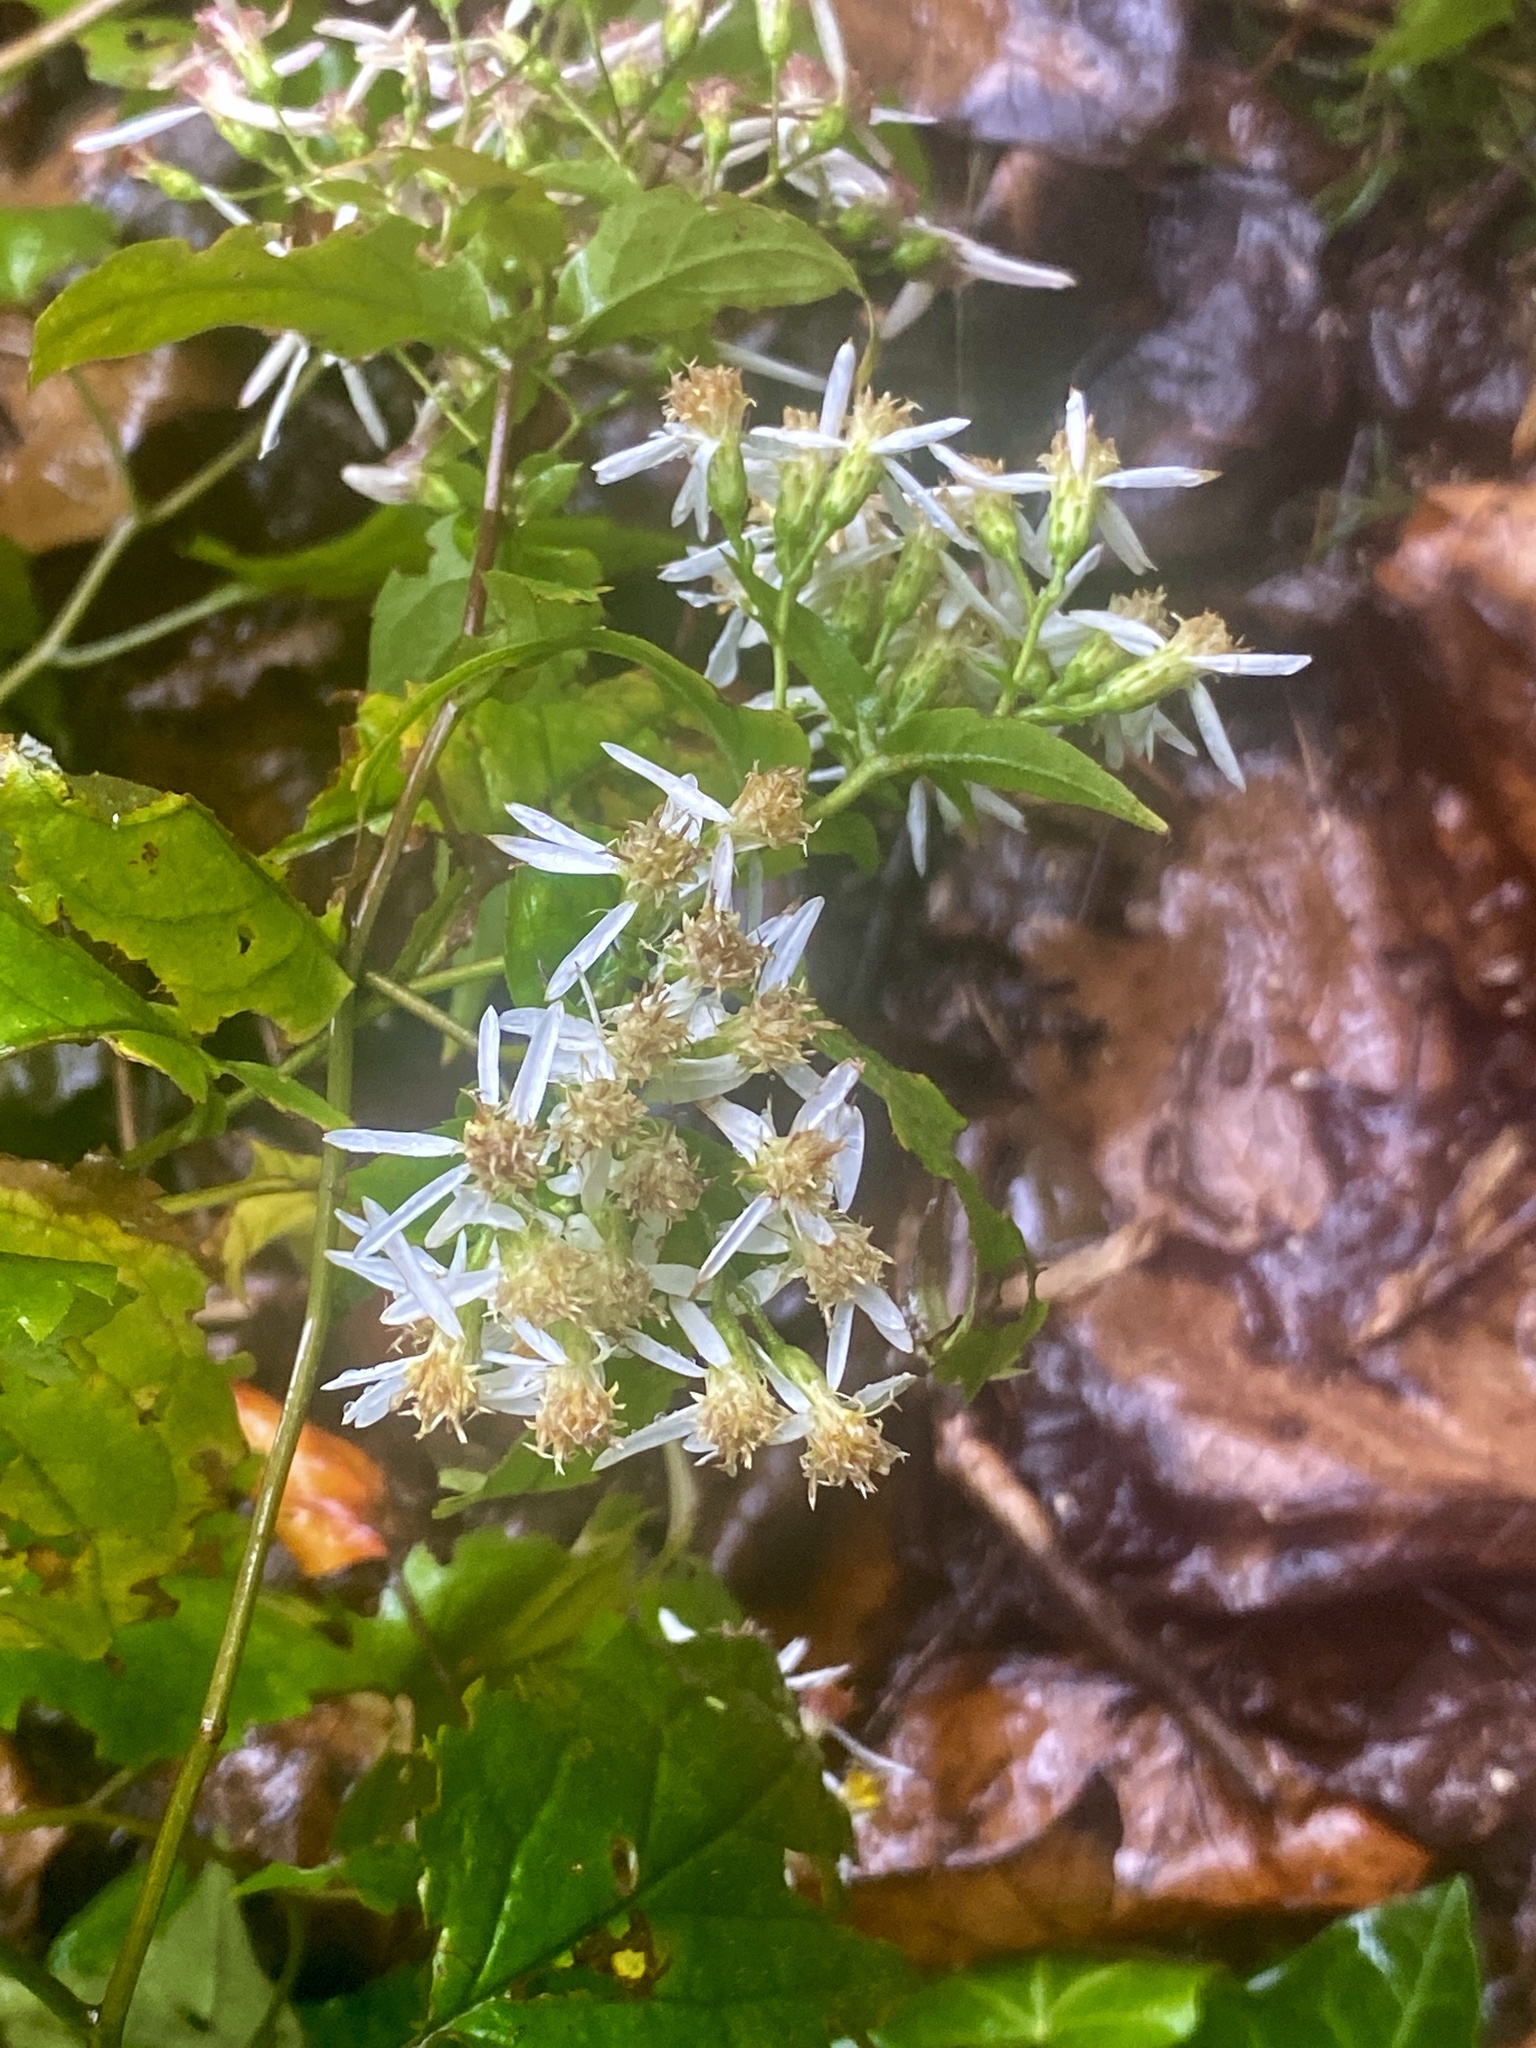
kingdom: Plantae
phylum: Tracheophyta
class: Magnoliopsida
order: Asterales
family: Asteraceae
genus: Eurybia
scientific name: Eurybia divaricata
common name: White wood aster
